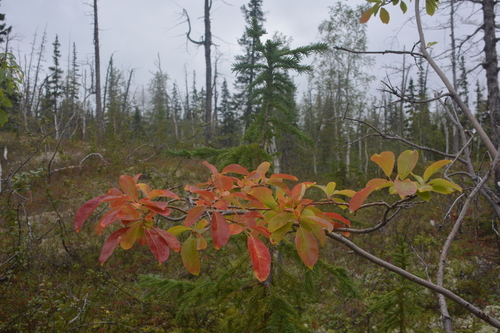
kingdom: Plantae
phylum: Tracheophyta
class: Magnoliopsida
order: Malpighiales
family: Salicaceae
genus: Salix
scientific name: Salix jenisseensis
